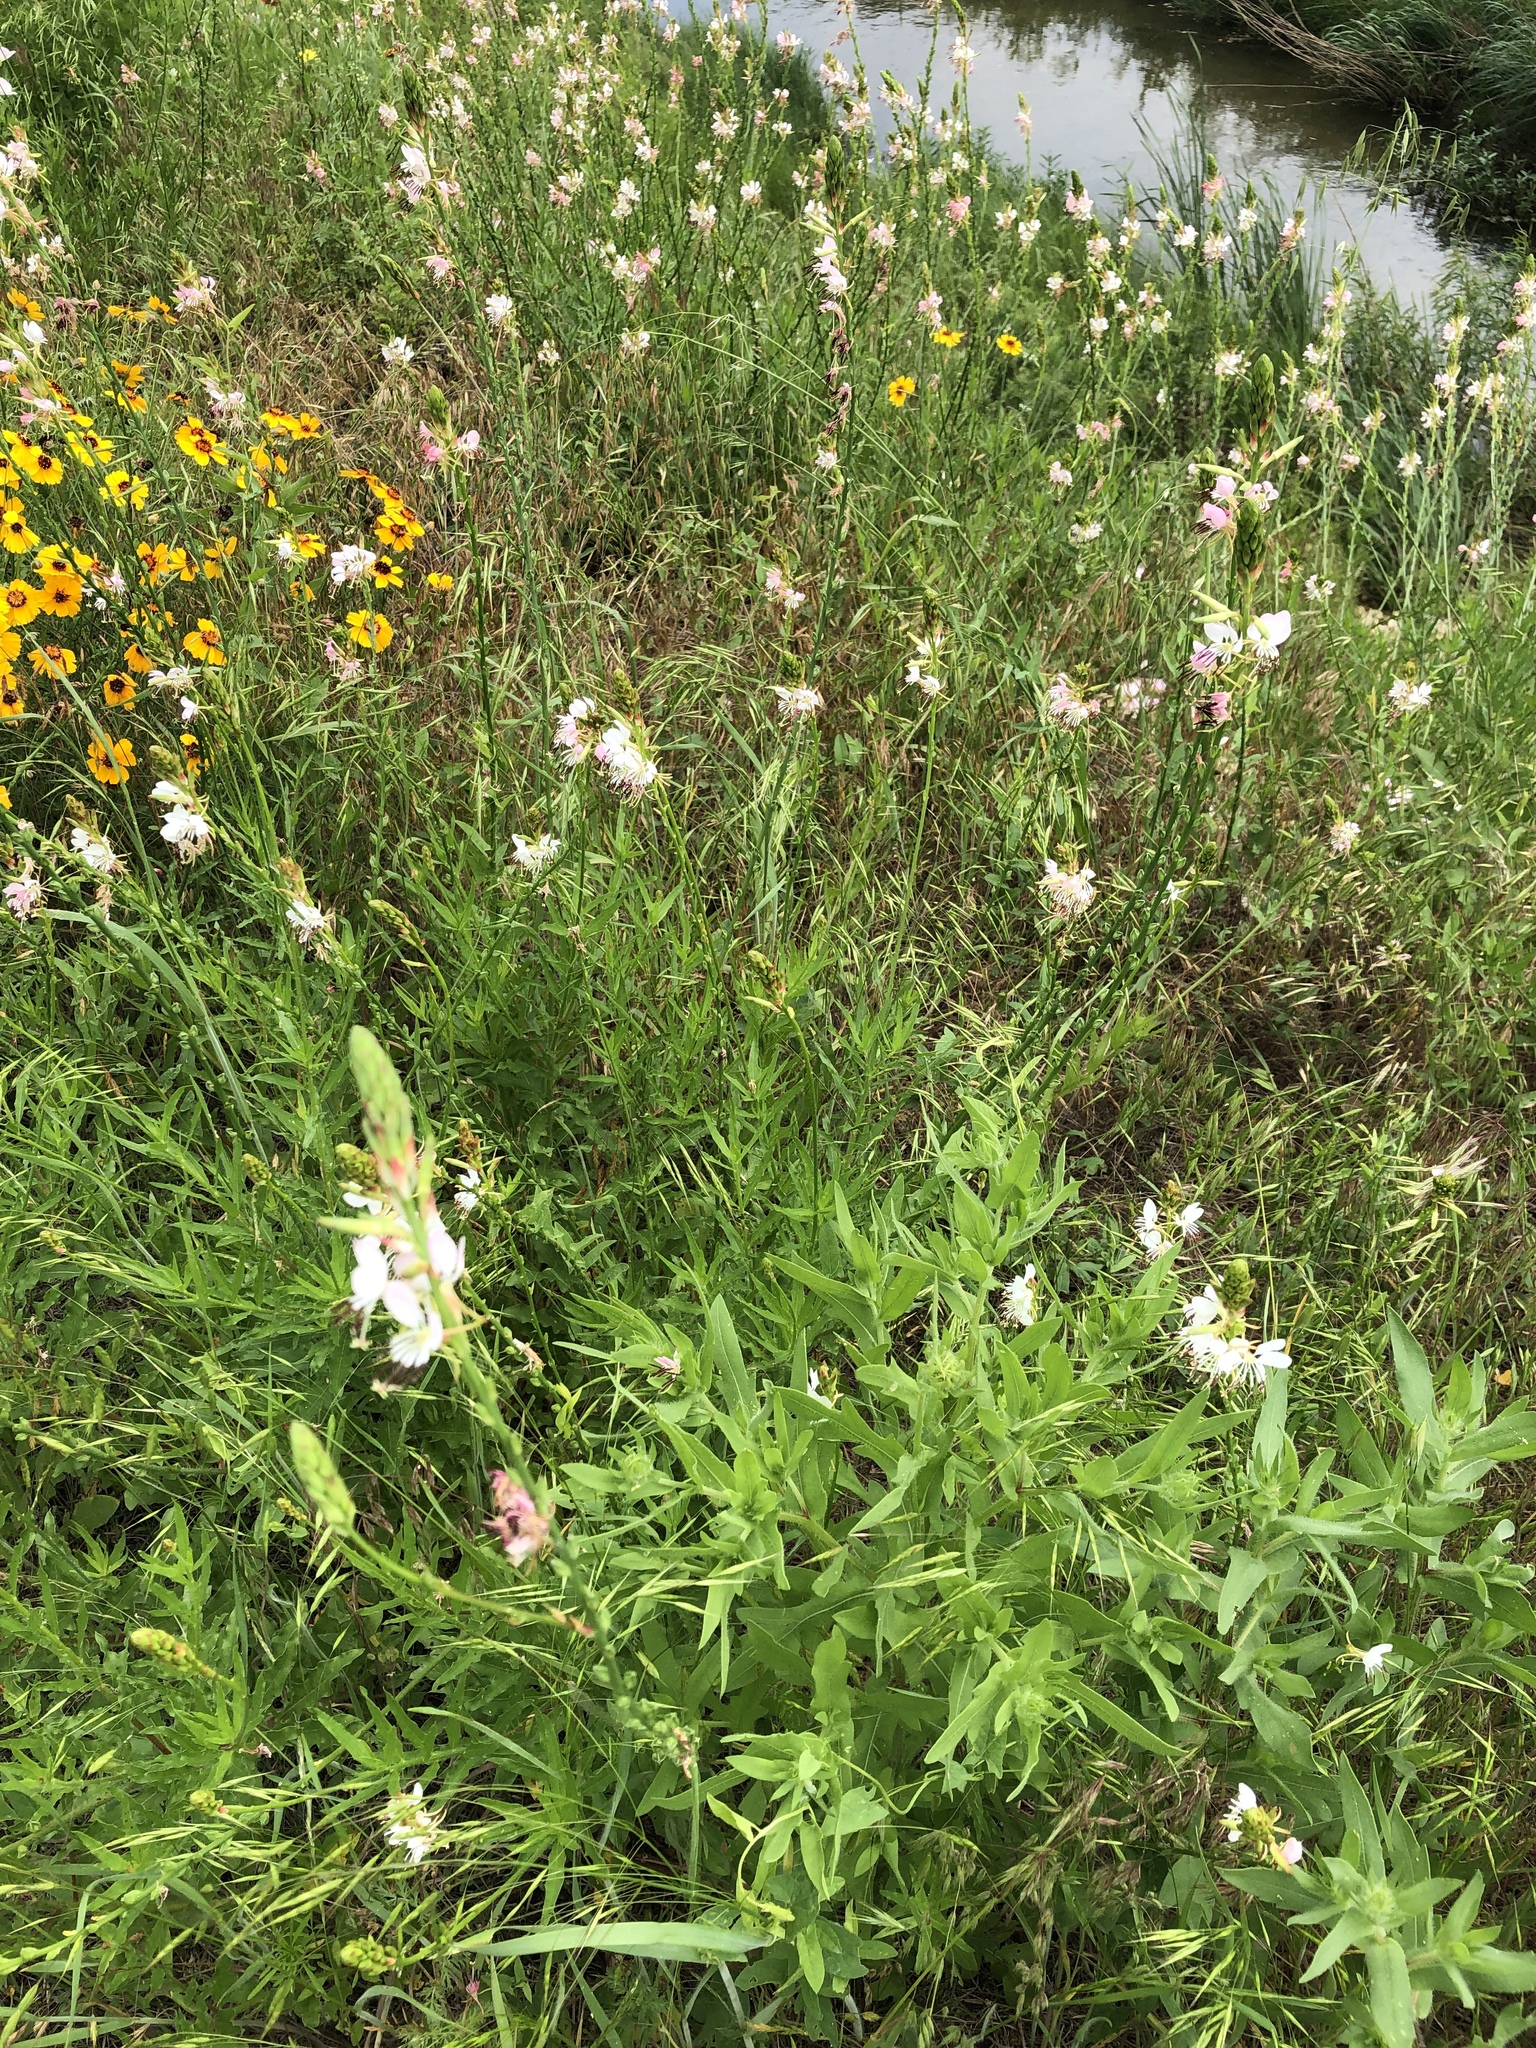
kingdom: Plantae
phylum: Tracheophyta
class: Magnoliopsida
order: Myrtales
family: Onagraceae
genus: Oenothera
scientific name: Oenothera suffulta
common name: Kisses
